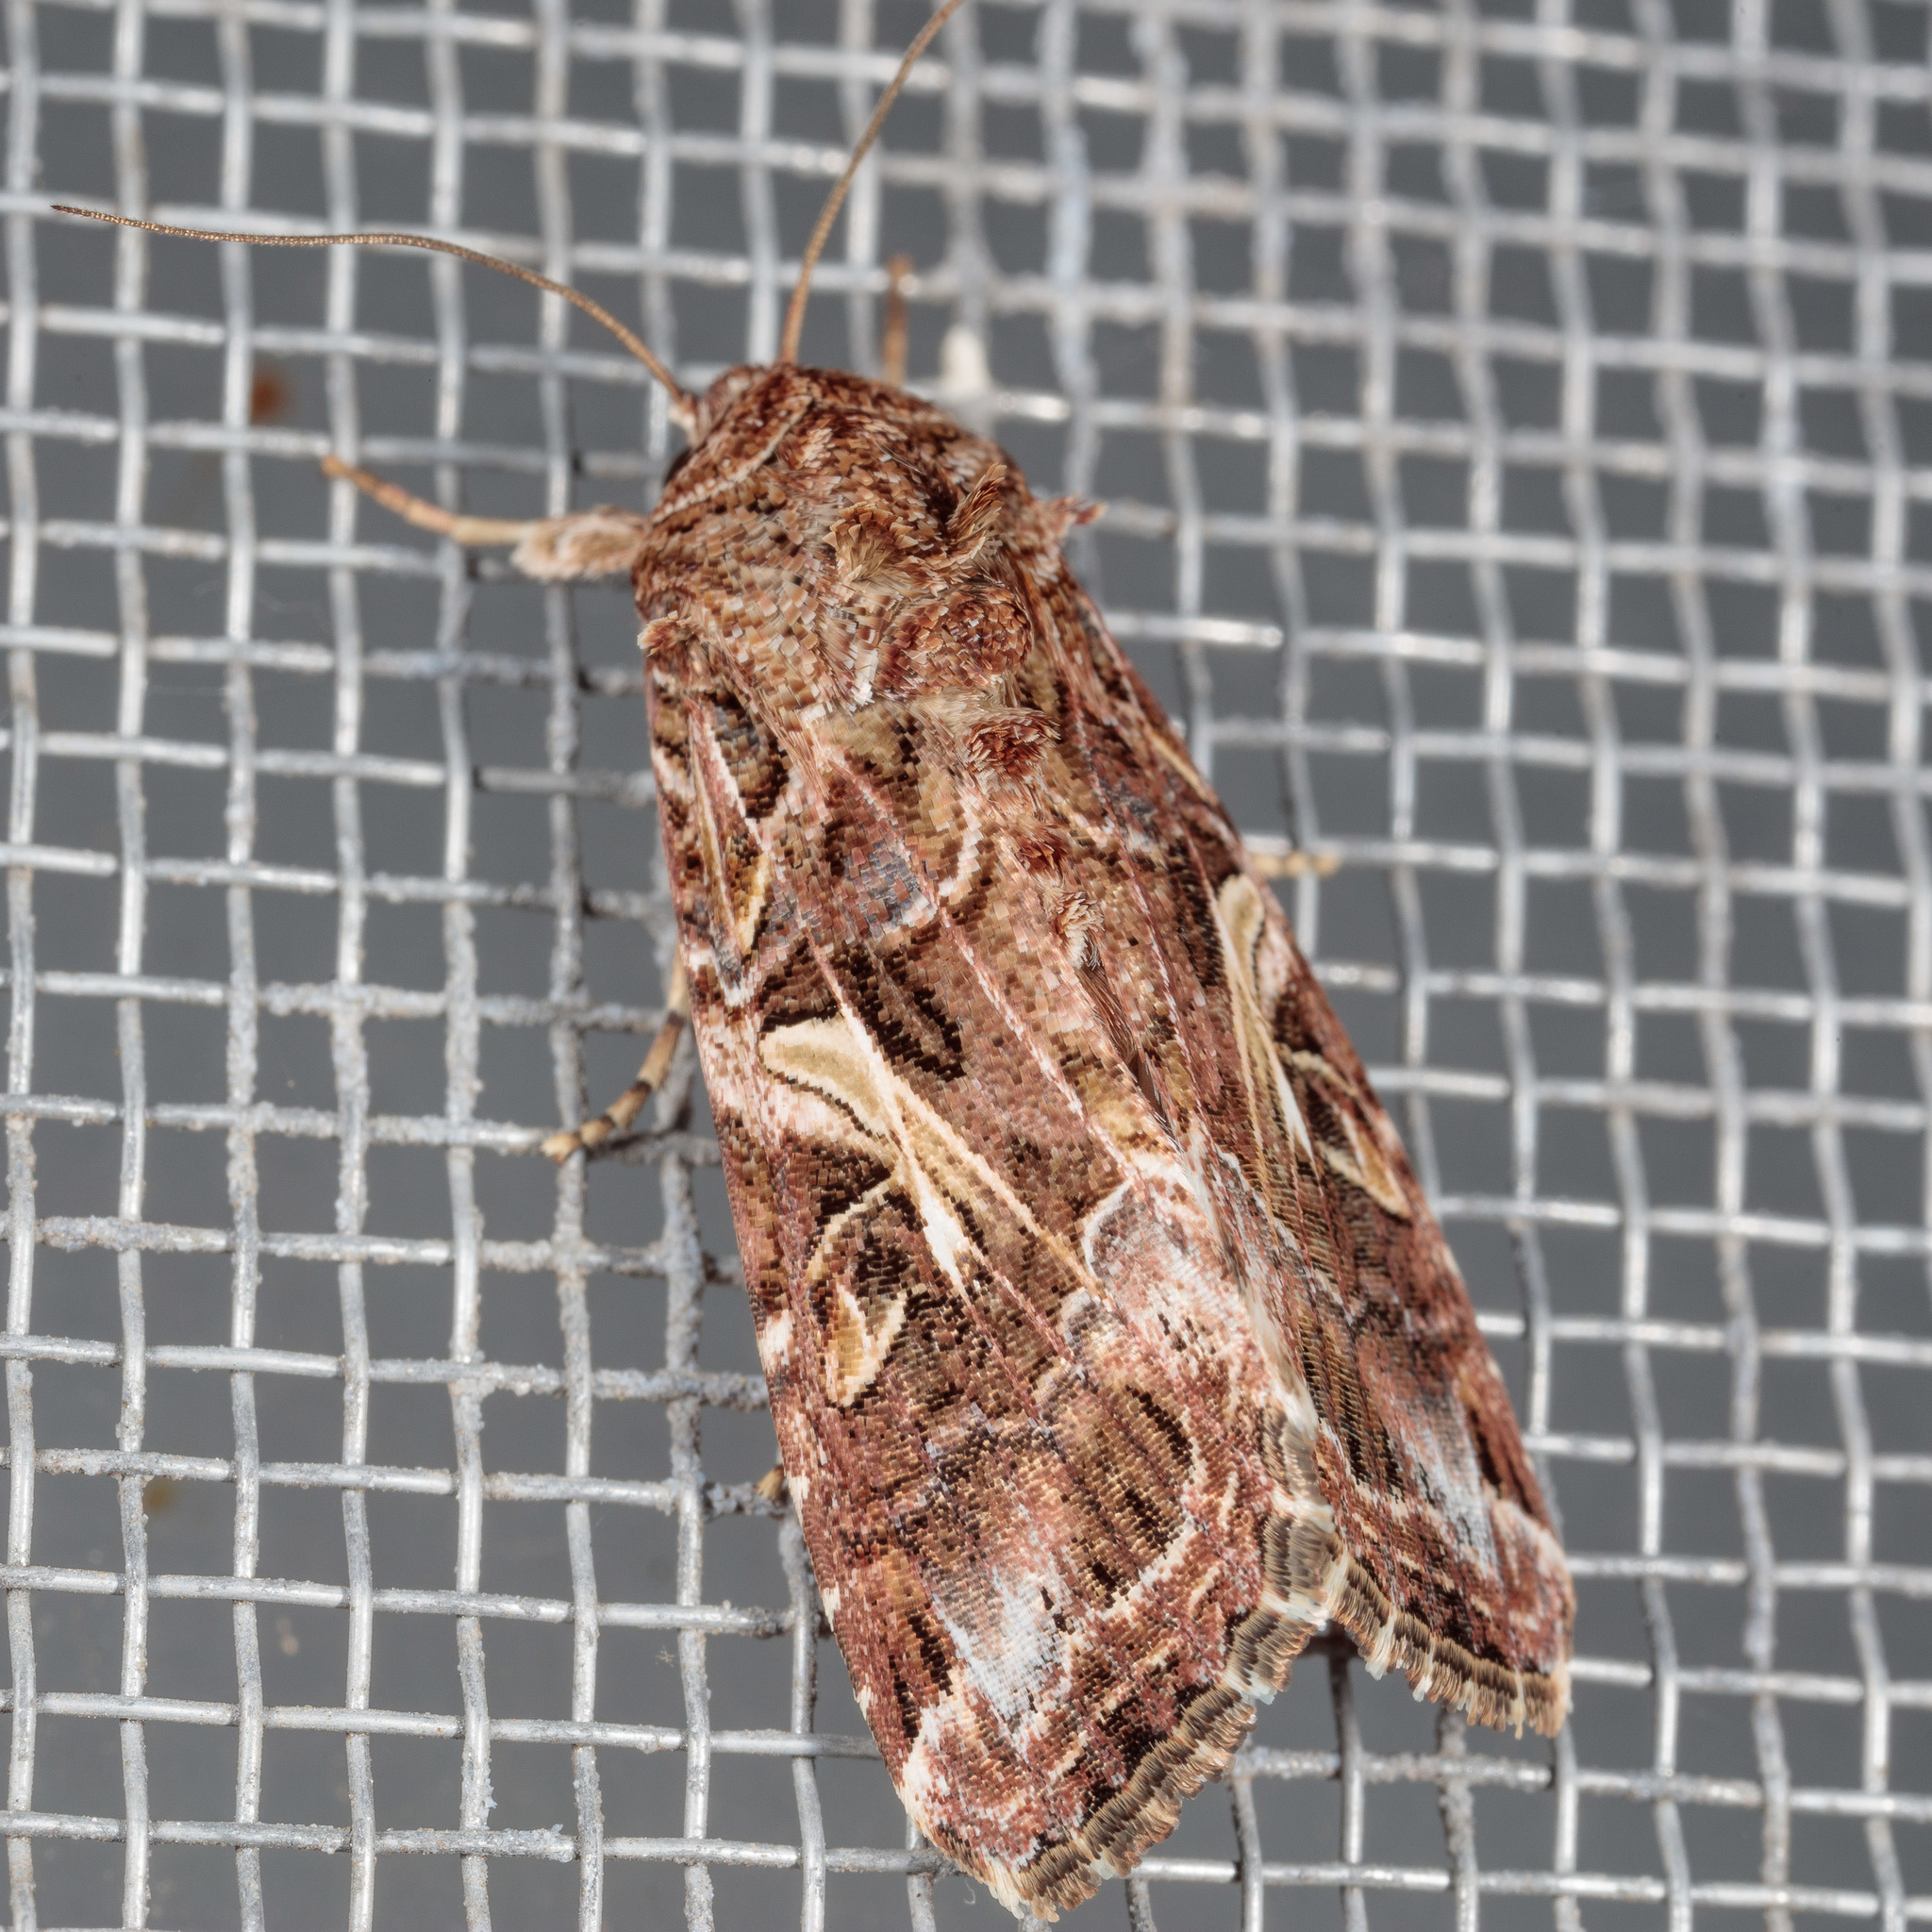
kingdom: Animalia
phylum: Arthropoda
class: Insecta
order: Lepidoptera
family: Noctuidae
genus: Spodoptera
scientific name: Spodoptera ornithogalli
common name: Yellow-striped armyworm
